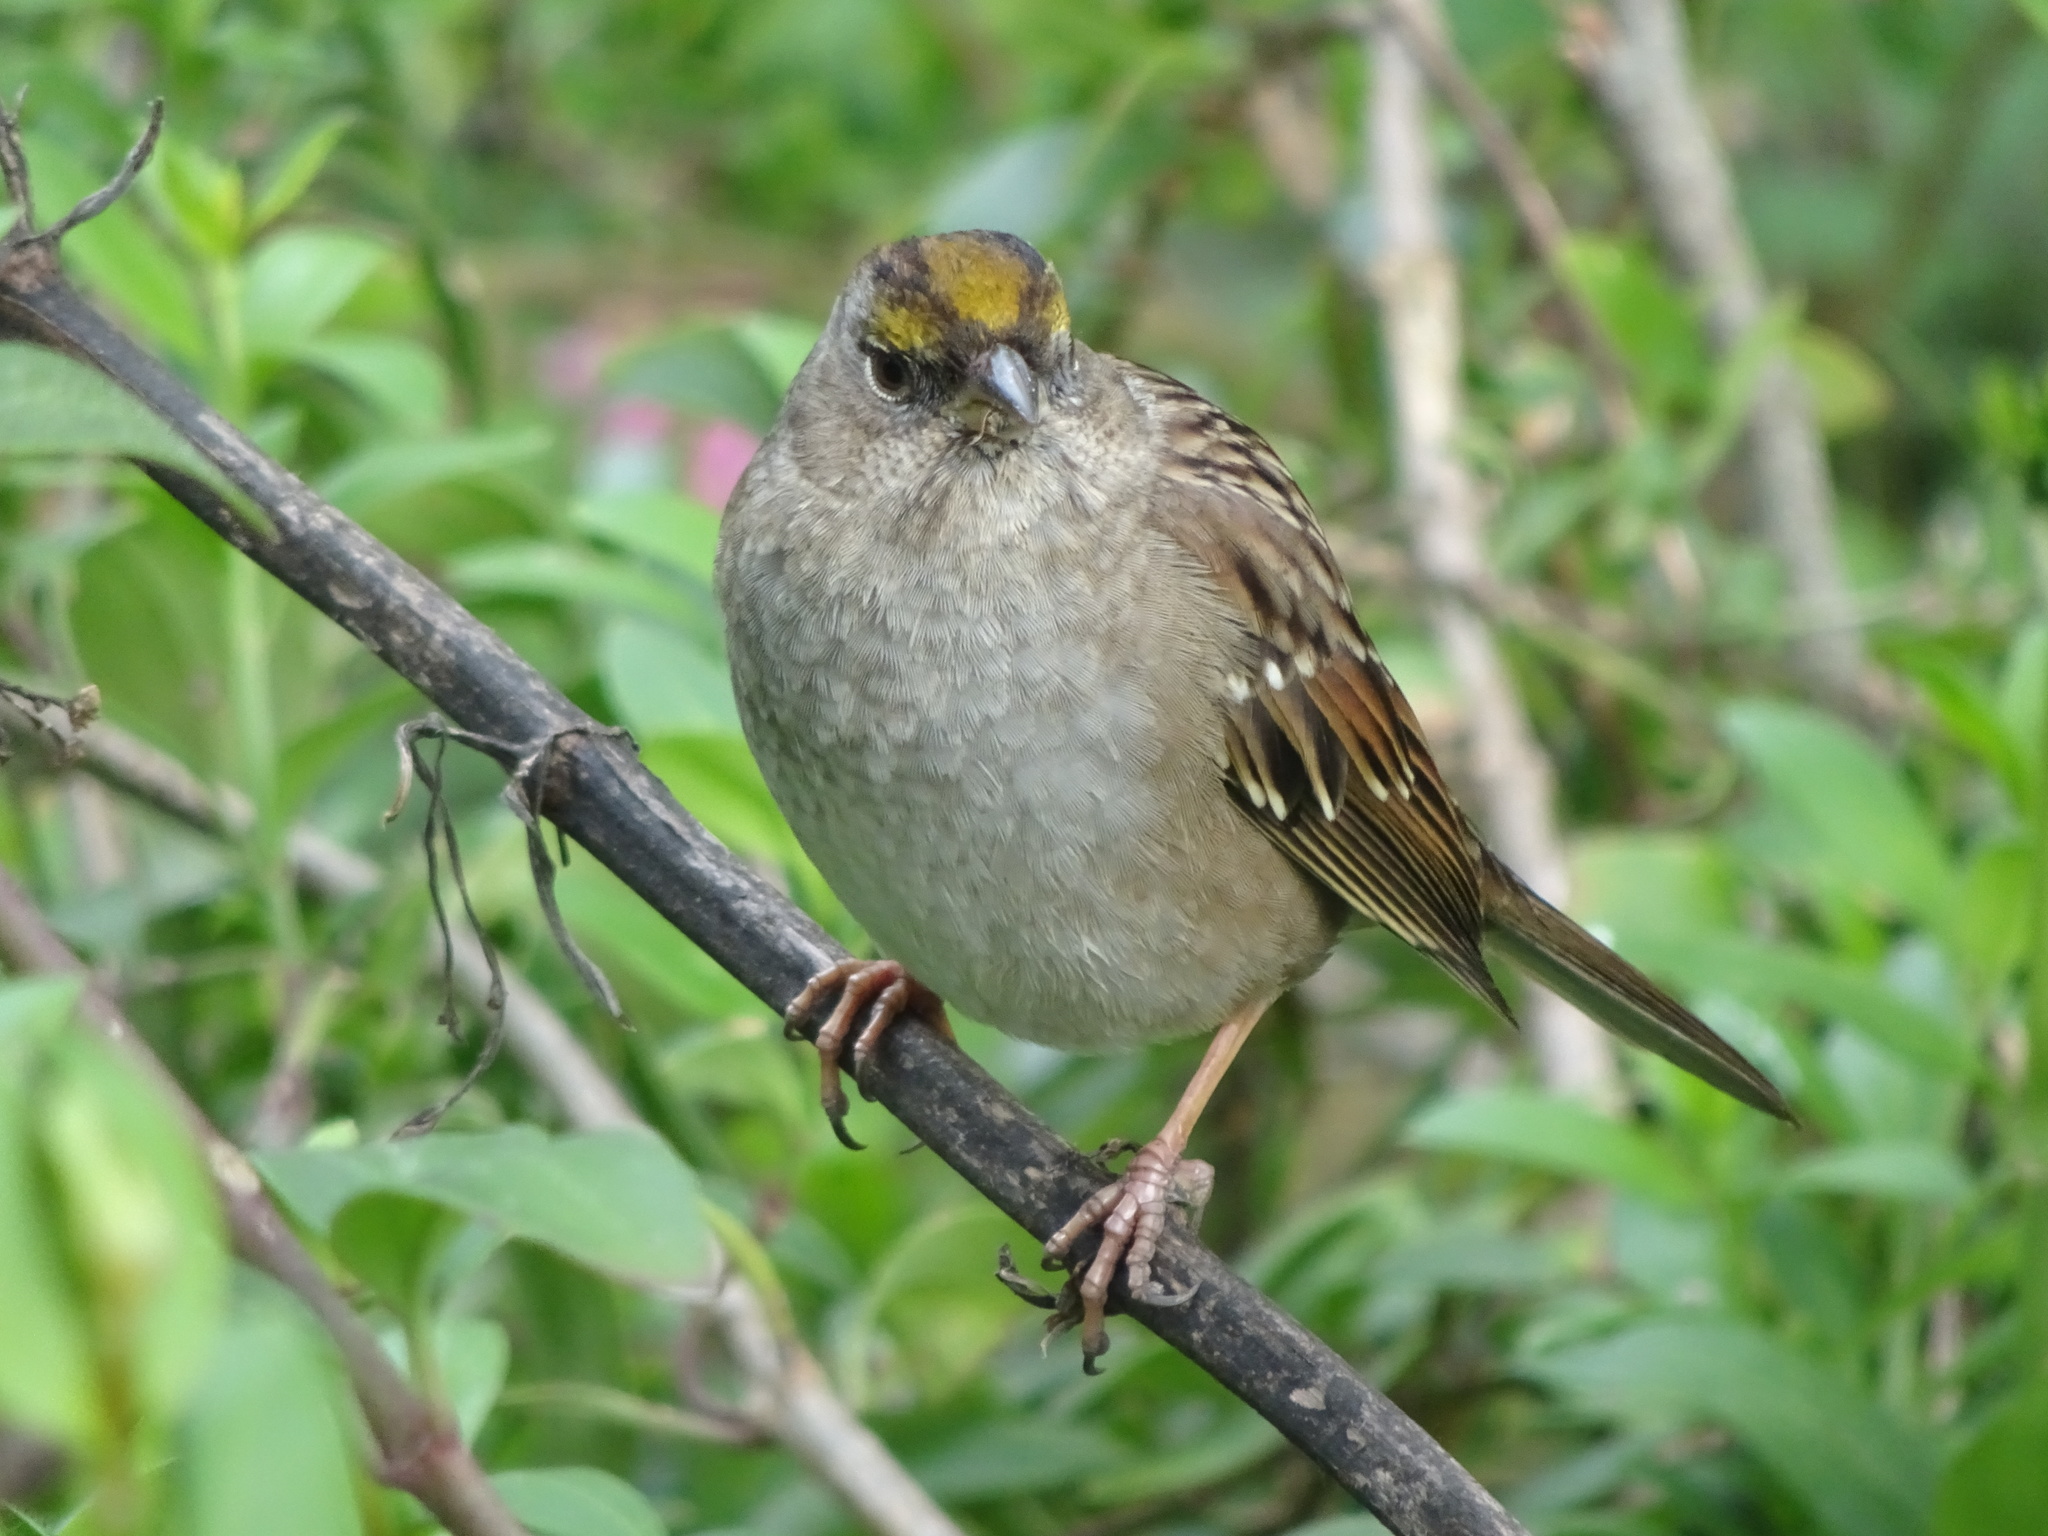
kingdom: Animalia
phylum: Chordata
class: Aves
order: Passeriformes
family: Passerellidae
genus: Zonotrichia
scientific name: Zonotrichia atricapilla
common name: Golden-crowned sparrow
